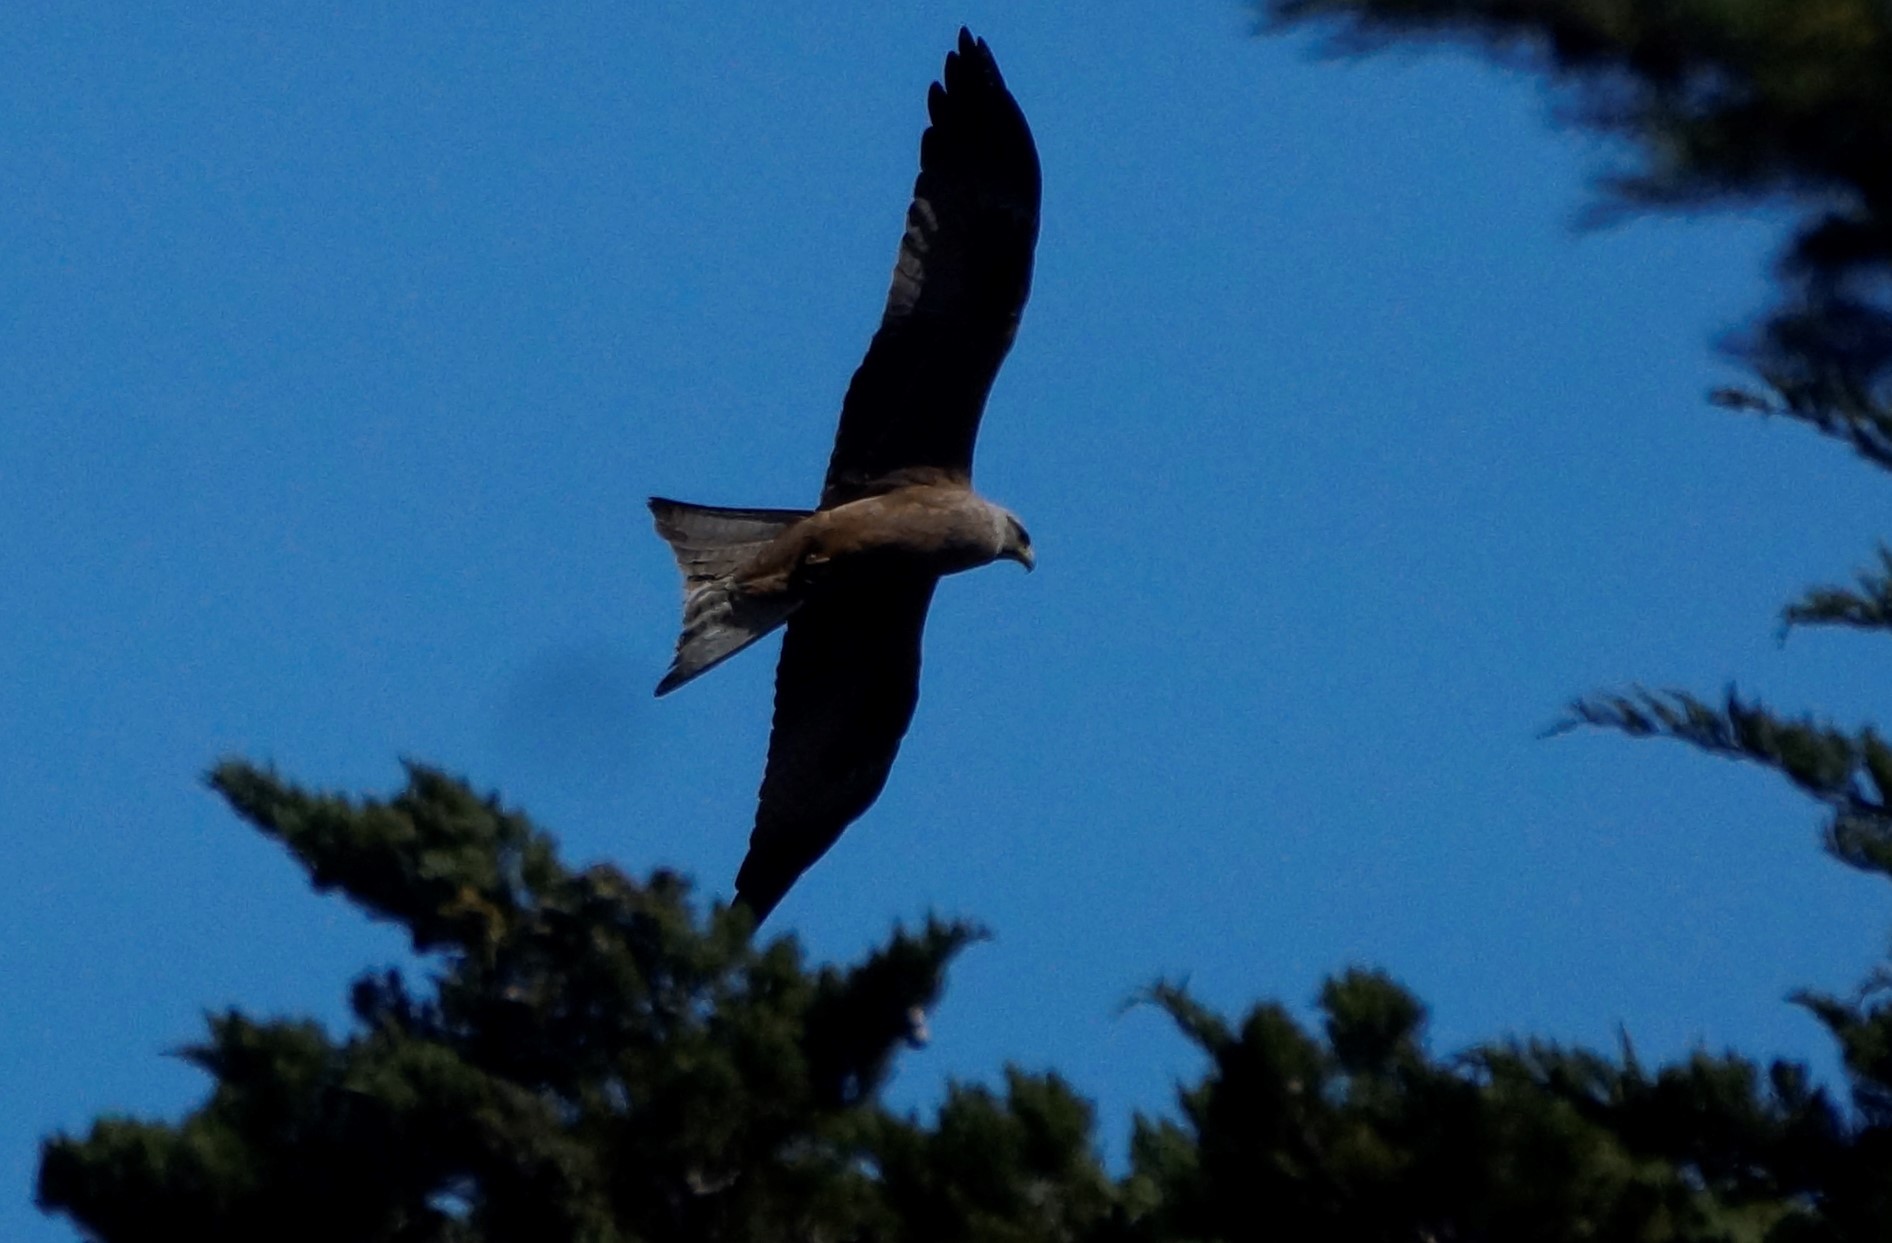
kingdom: Animalia
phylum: Chordata
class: Aves
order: Accipitriformes
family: Accipitridae
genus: Milvus
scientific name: Milvus migrans
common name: Black kite
